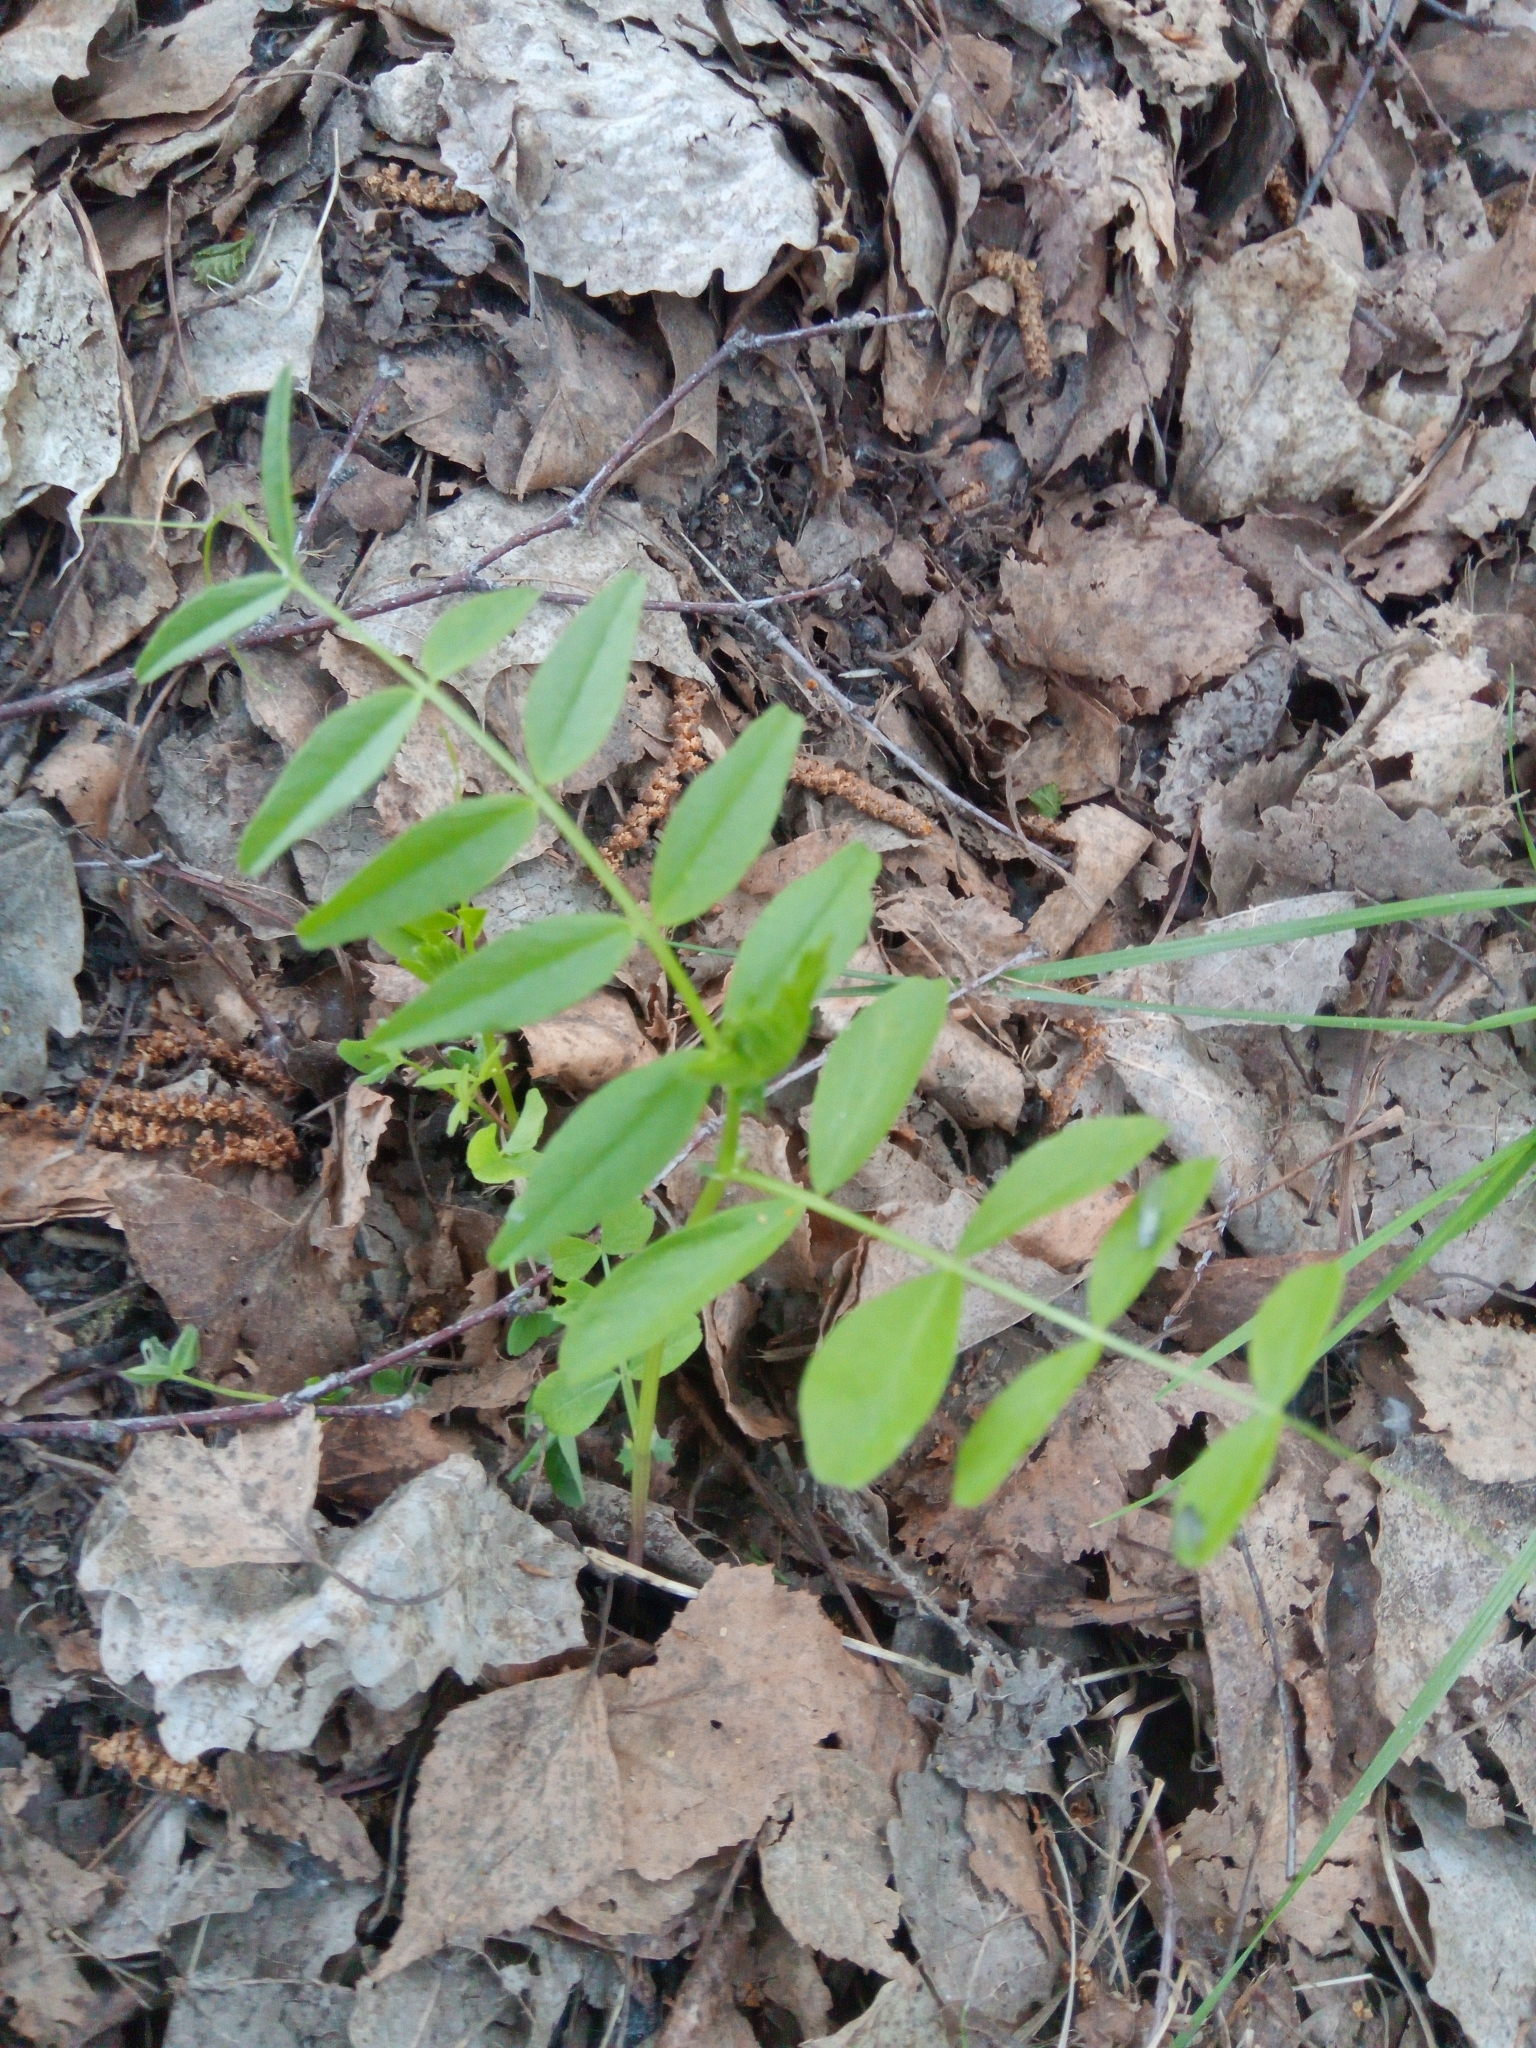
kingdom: Plantae
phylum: Tracheophyta
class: Magnoliopsida
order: Fabales
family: Fabaceae
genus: Vicia
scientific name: Vicia sepium
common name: Bush vetch
